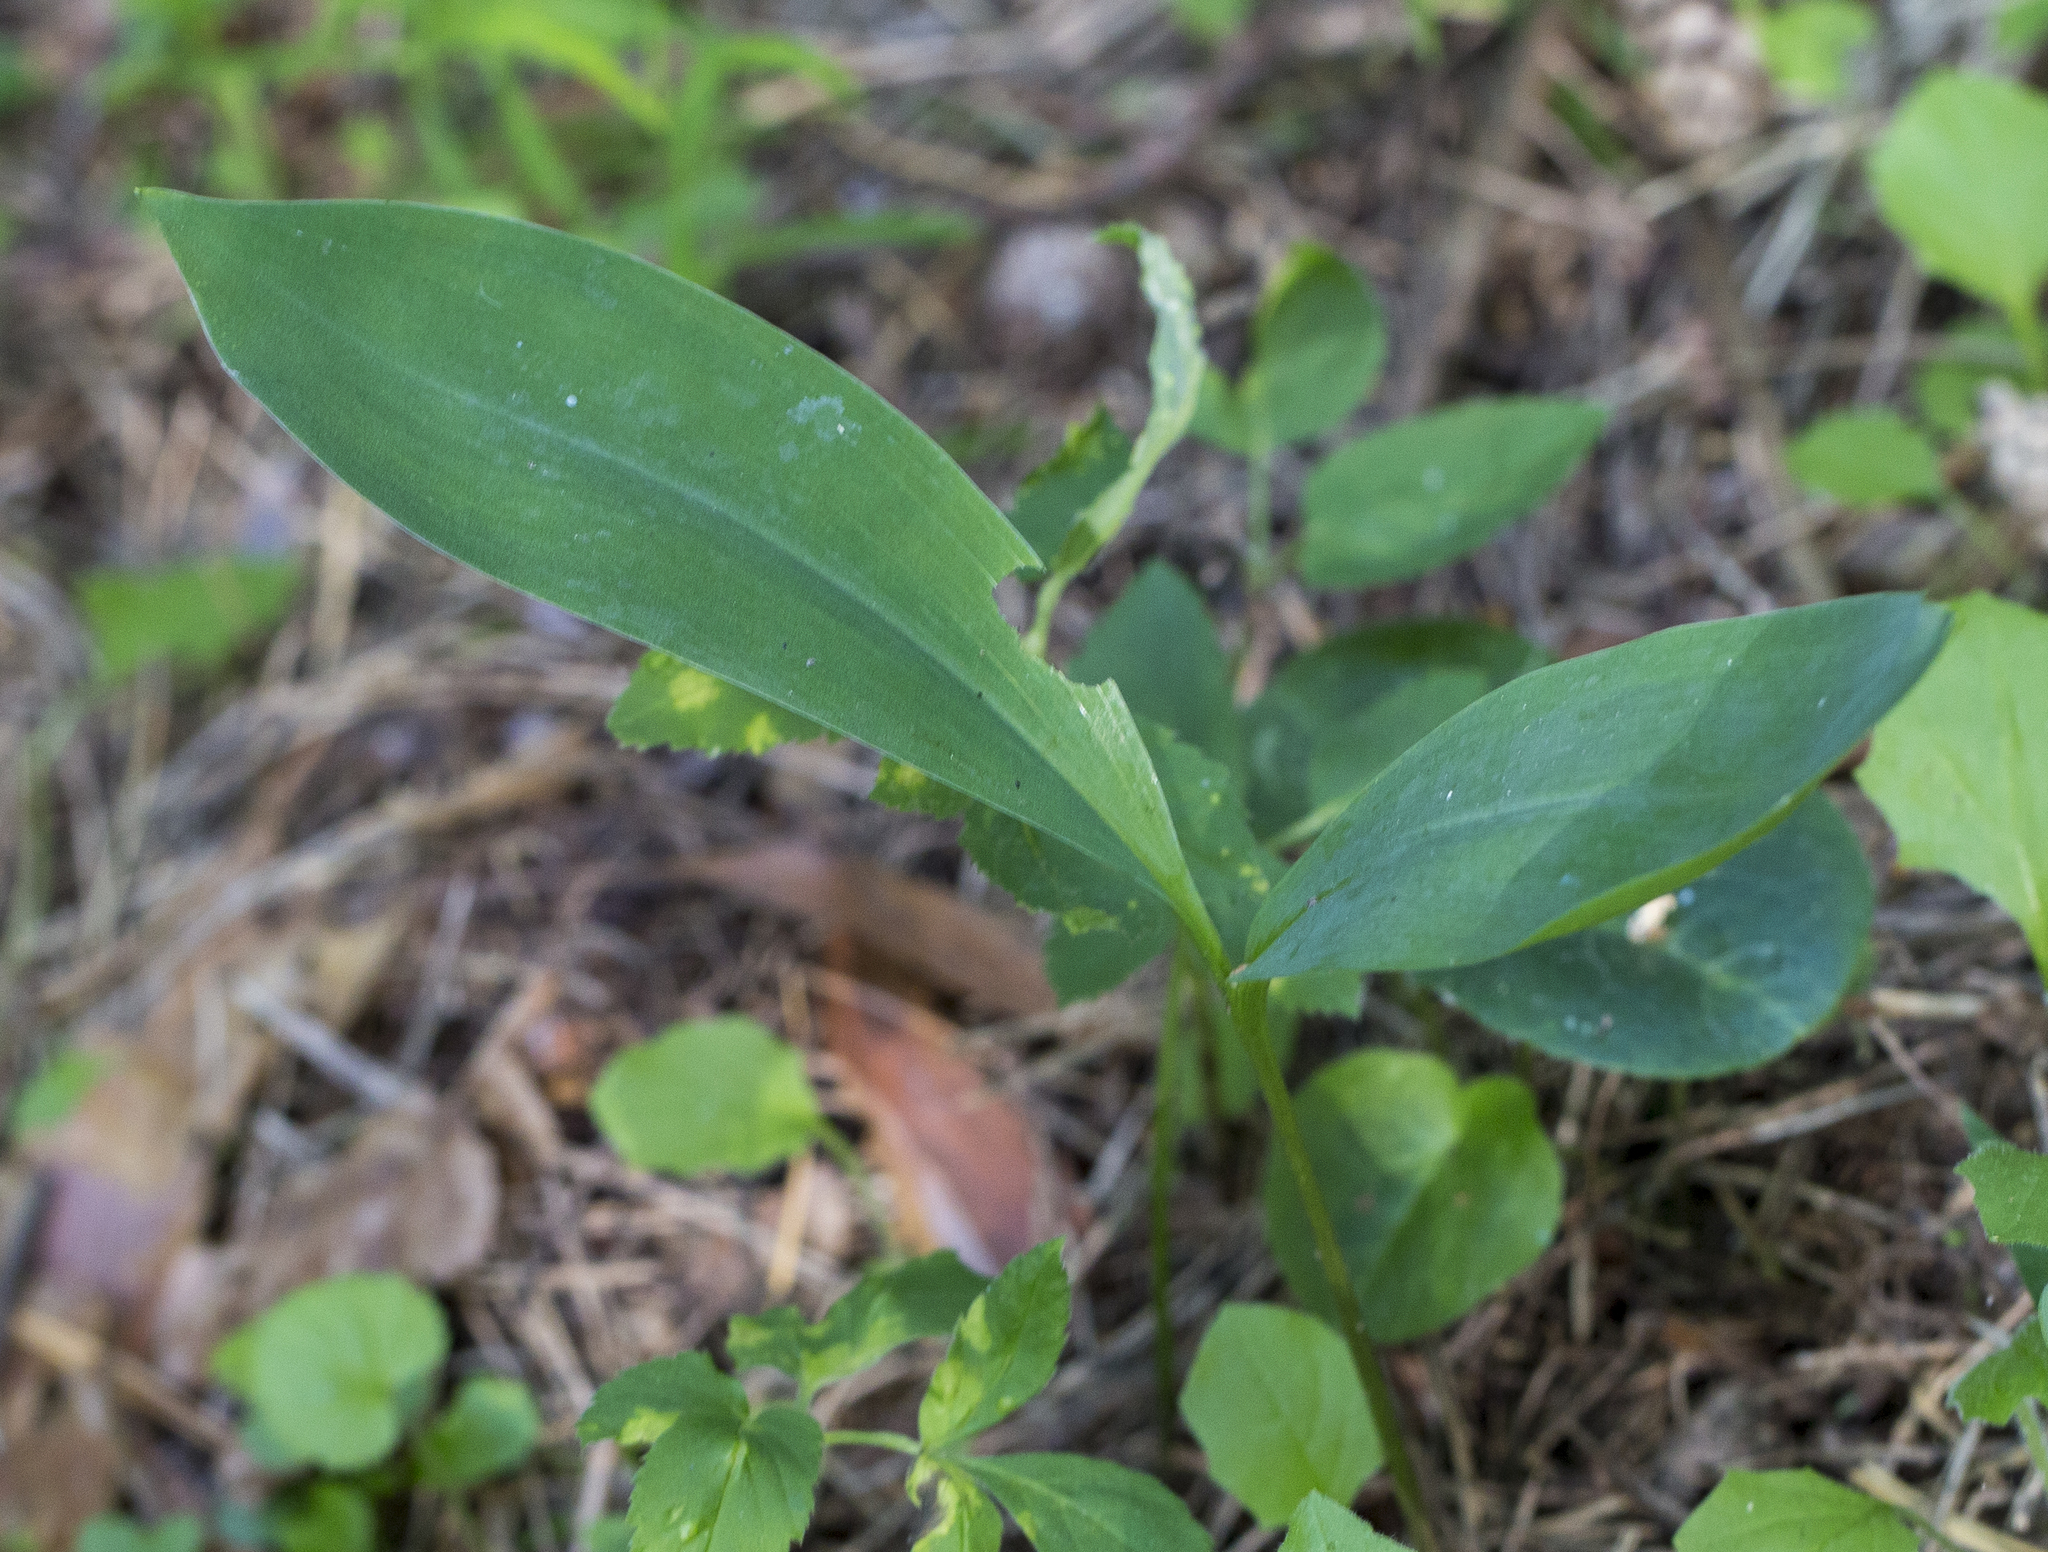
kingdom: Plantae
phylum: Tracheophyta
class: Liliopsida
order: Asparagales
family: Asparagaceae
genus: Convallaria
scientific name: Convallaria majalis
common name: Lily-of-the-valley
